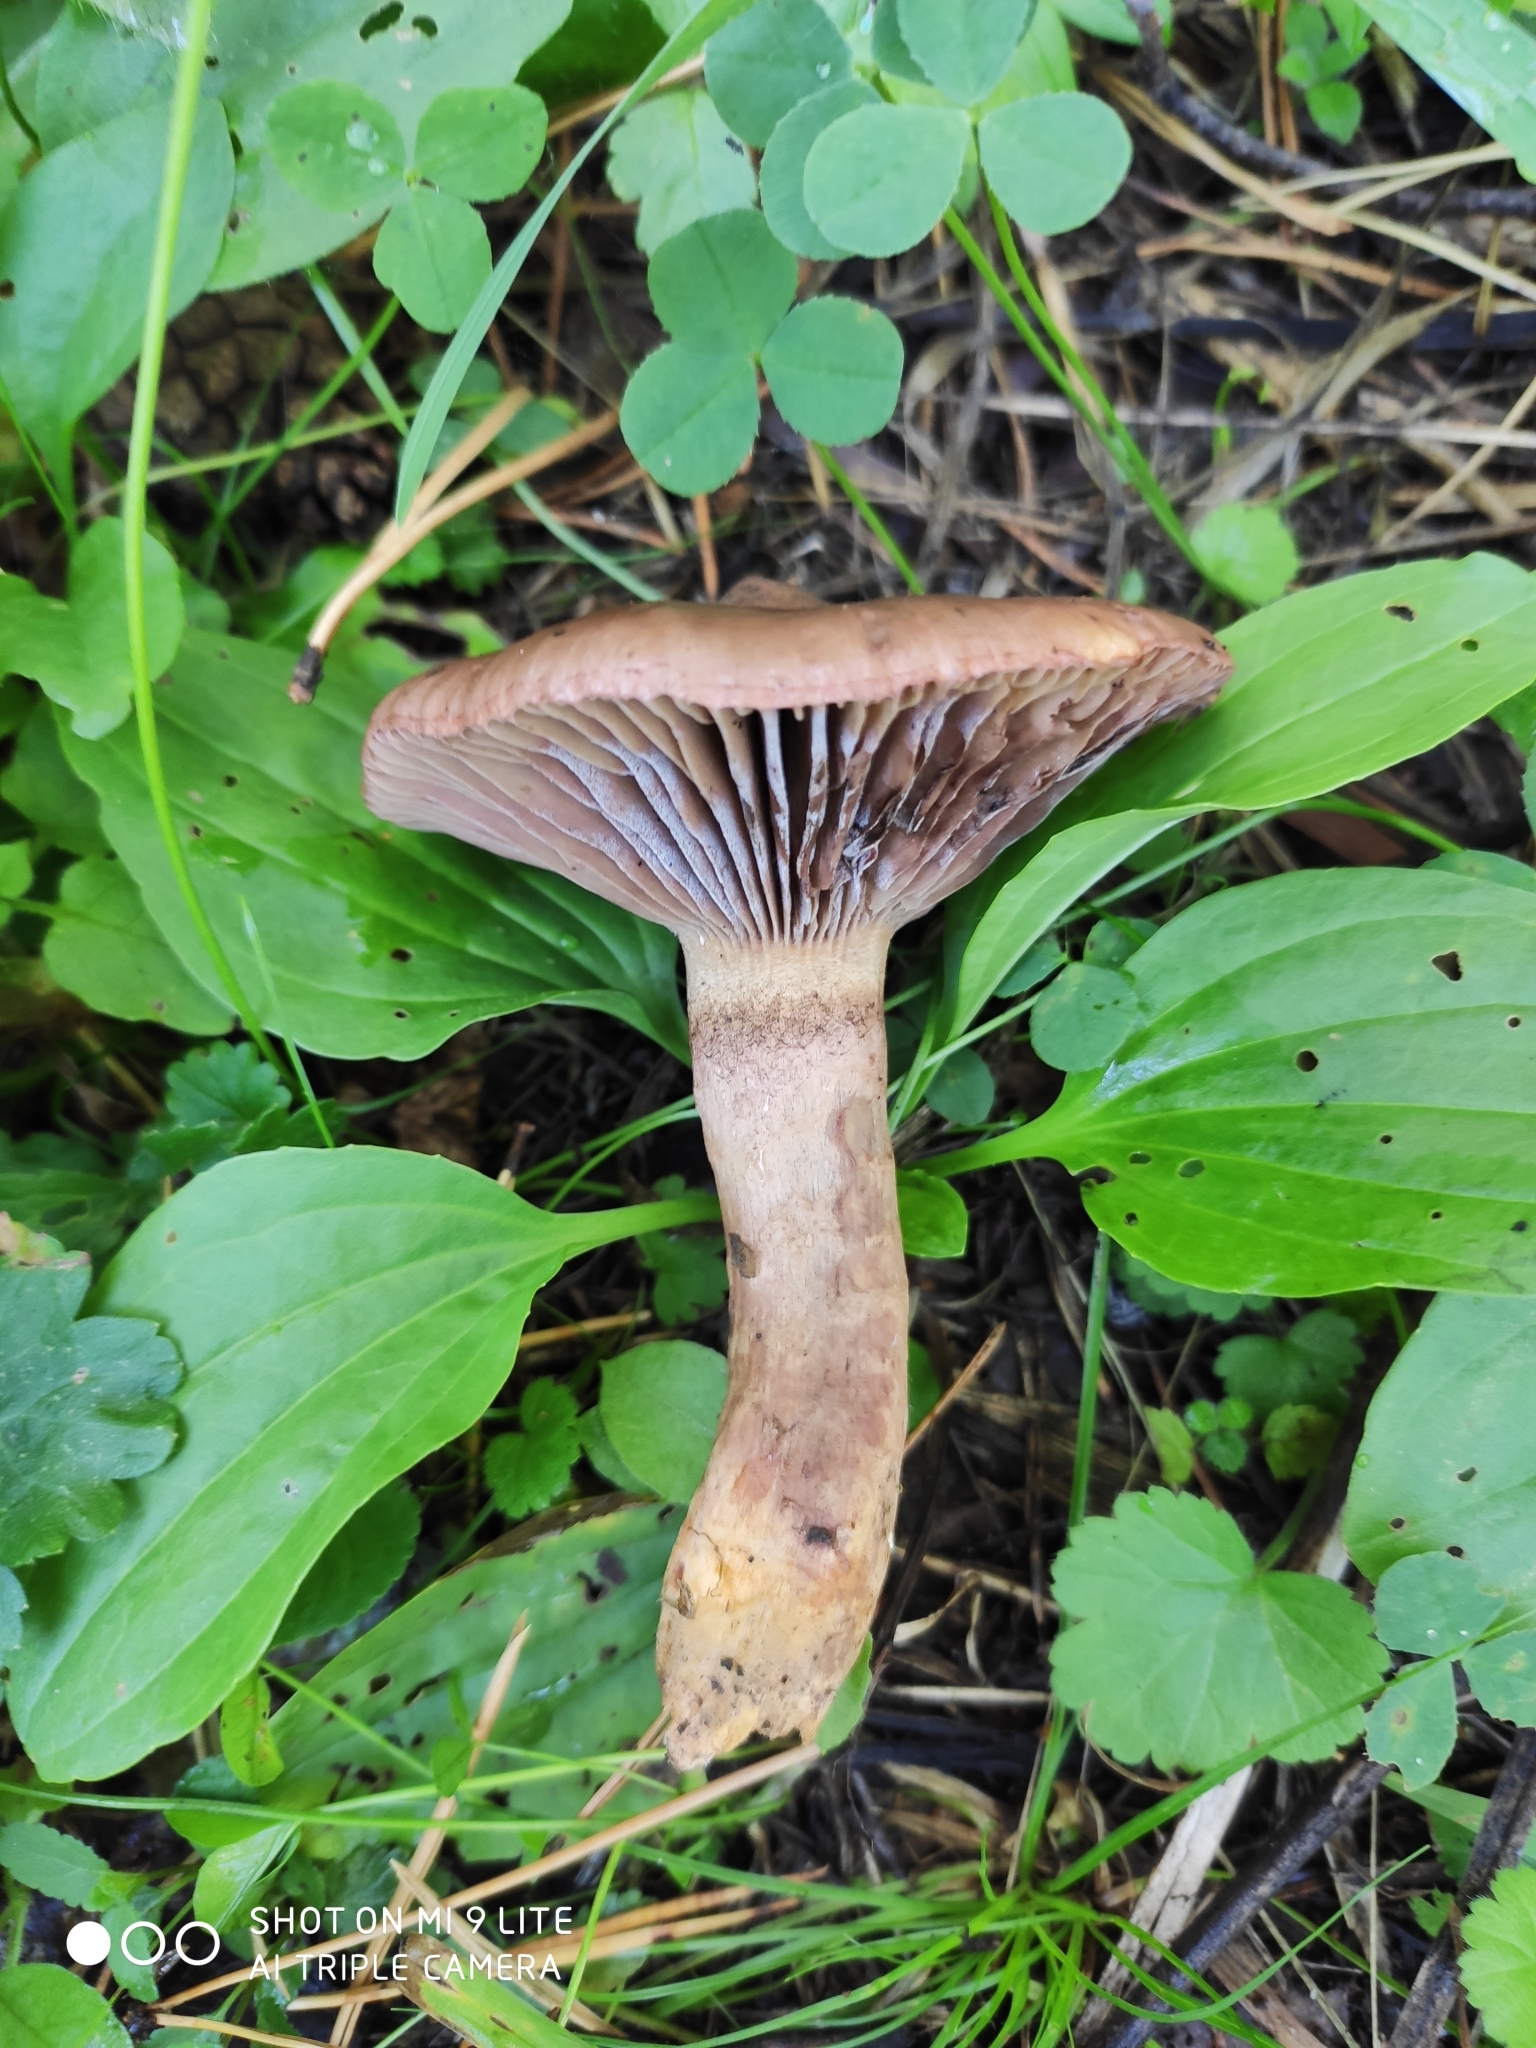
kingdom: Fungi
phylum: Basidiomycota
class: Agaricomycetes
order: Boletales
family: Gomphidiaceae
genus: Chroogomphus
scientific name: Chroogomphus rutilus
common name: Copper spike
